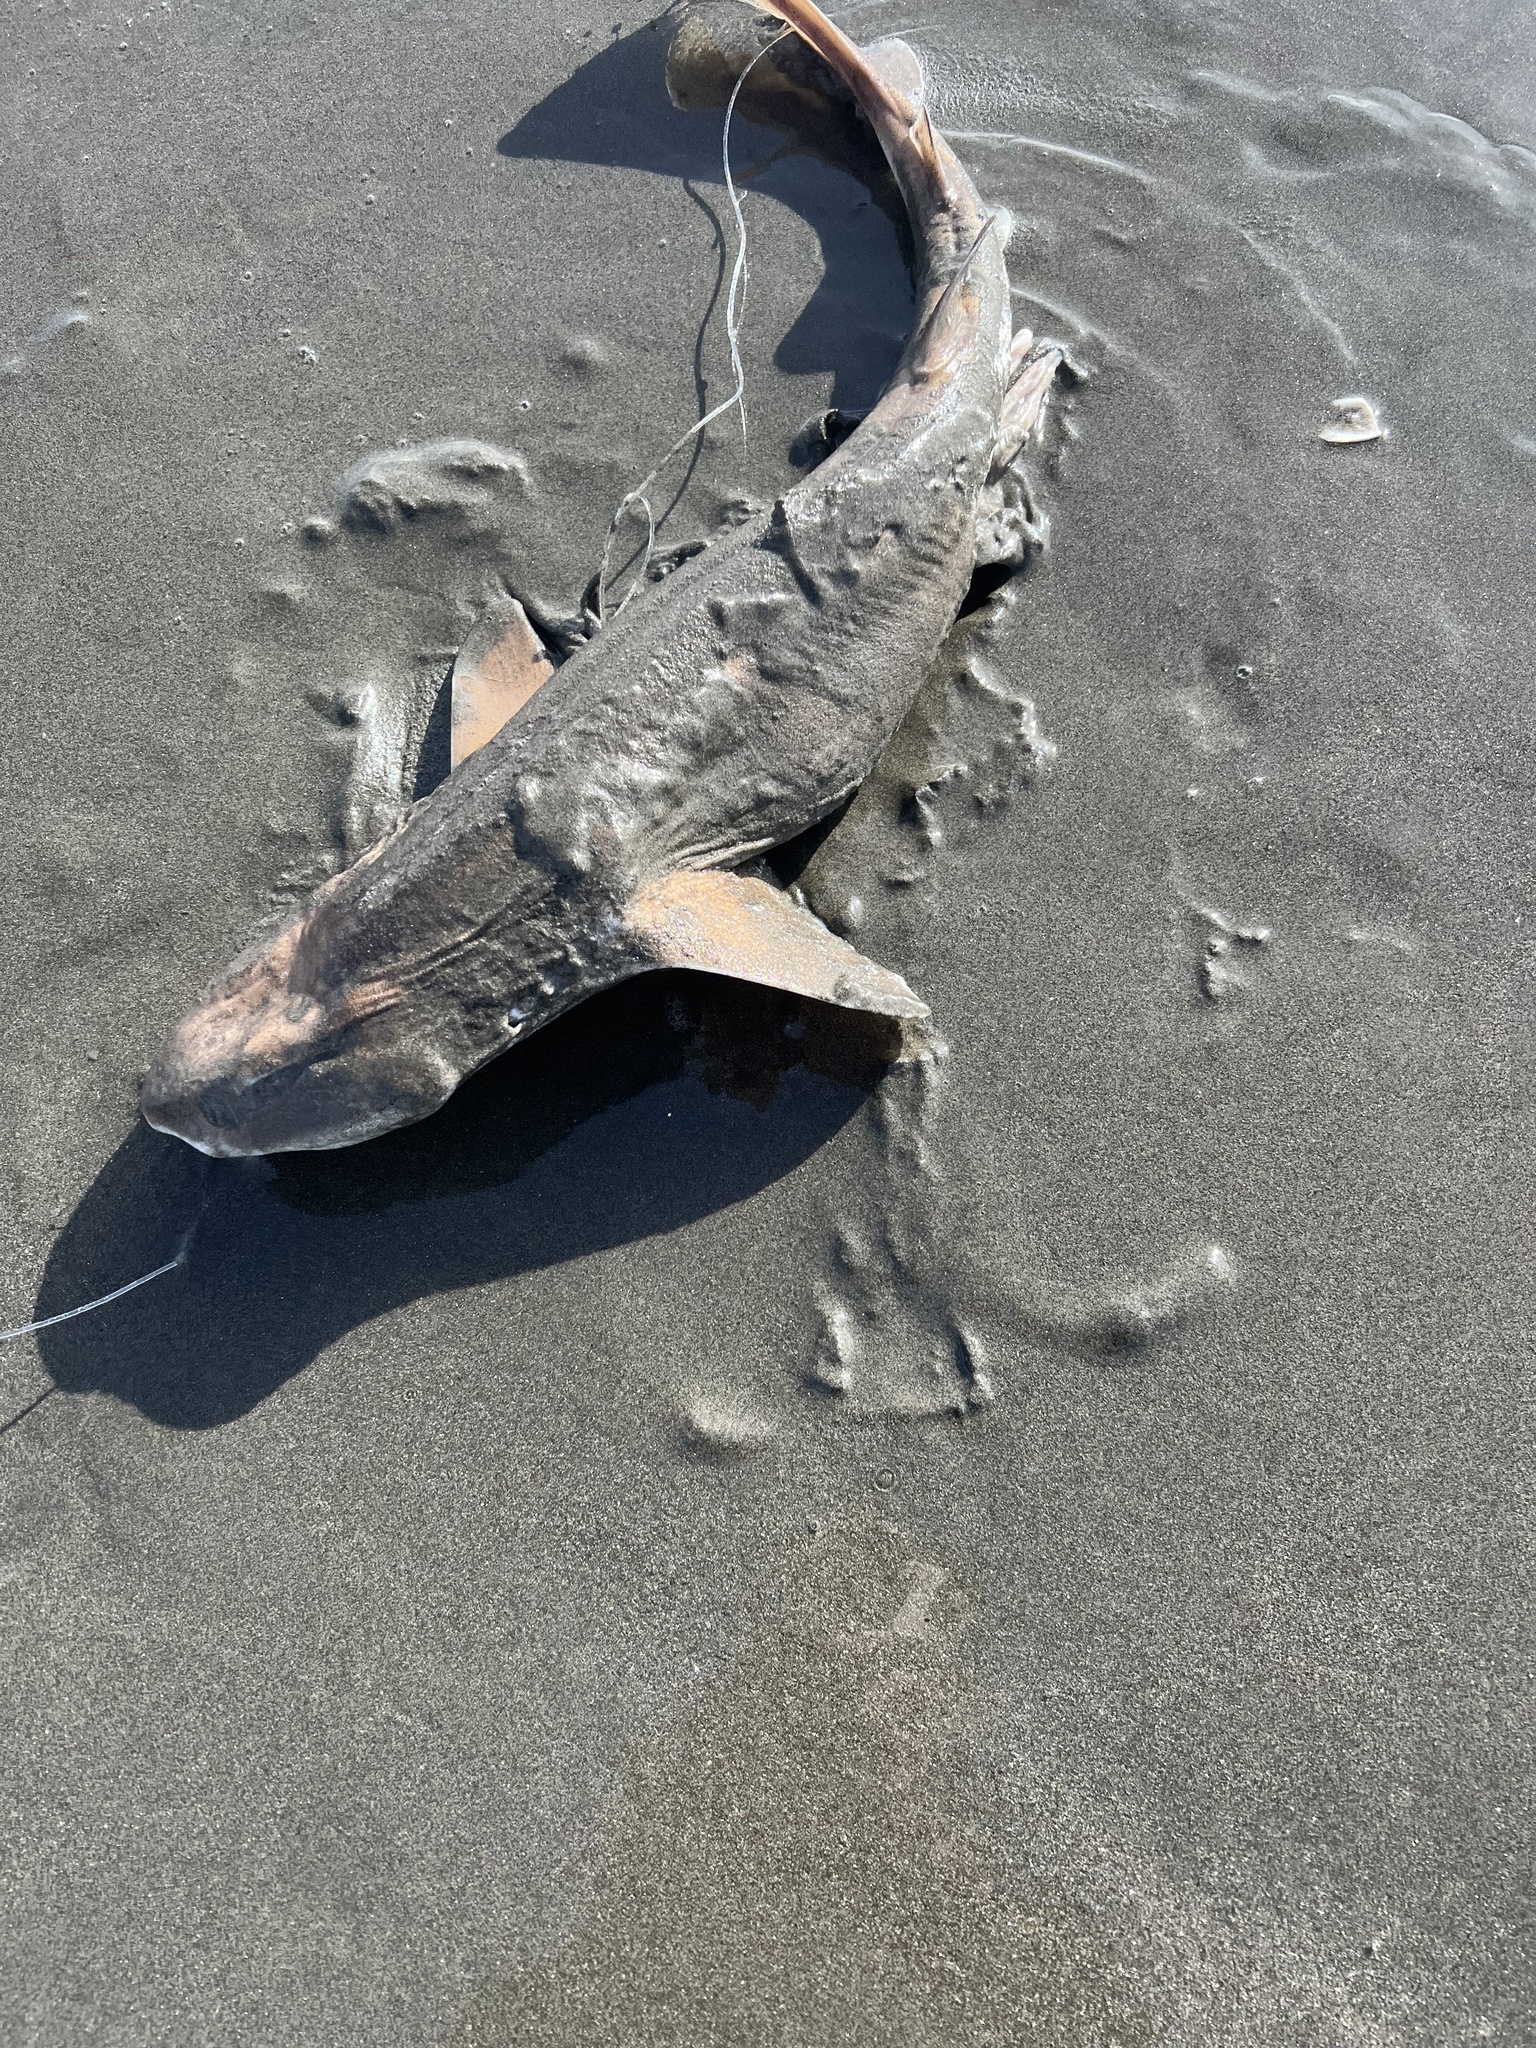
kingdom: Animalia
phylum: Chordata
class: Elasmobranchii
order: Carcharhiniformes
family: Scyliorhinidae
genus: Cephaloscyllium
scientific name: Cephaloscyllium isabellum
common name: Carpet shark
